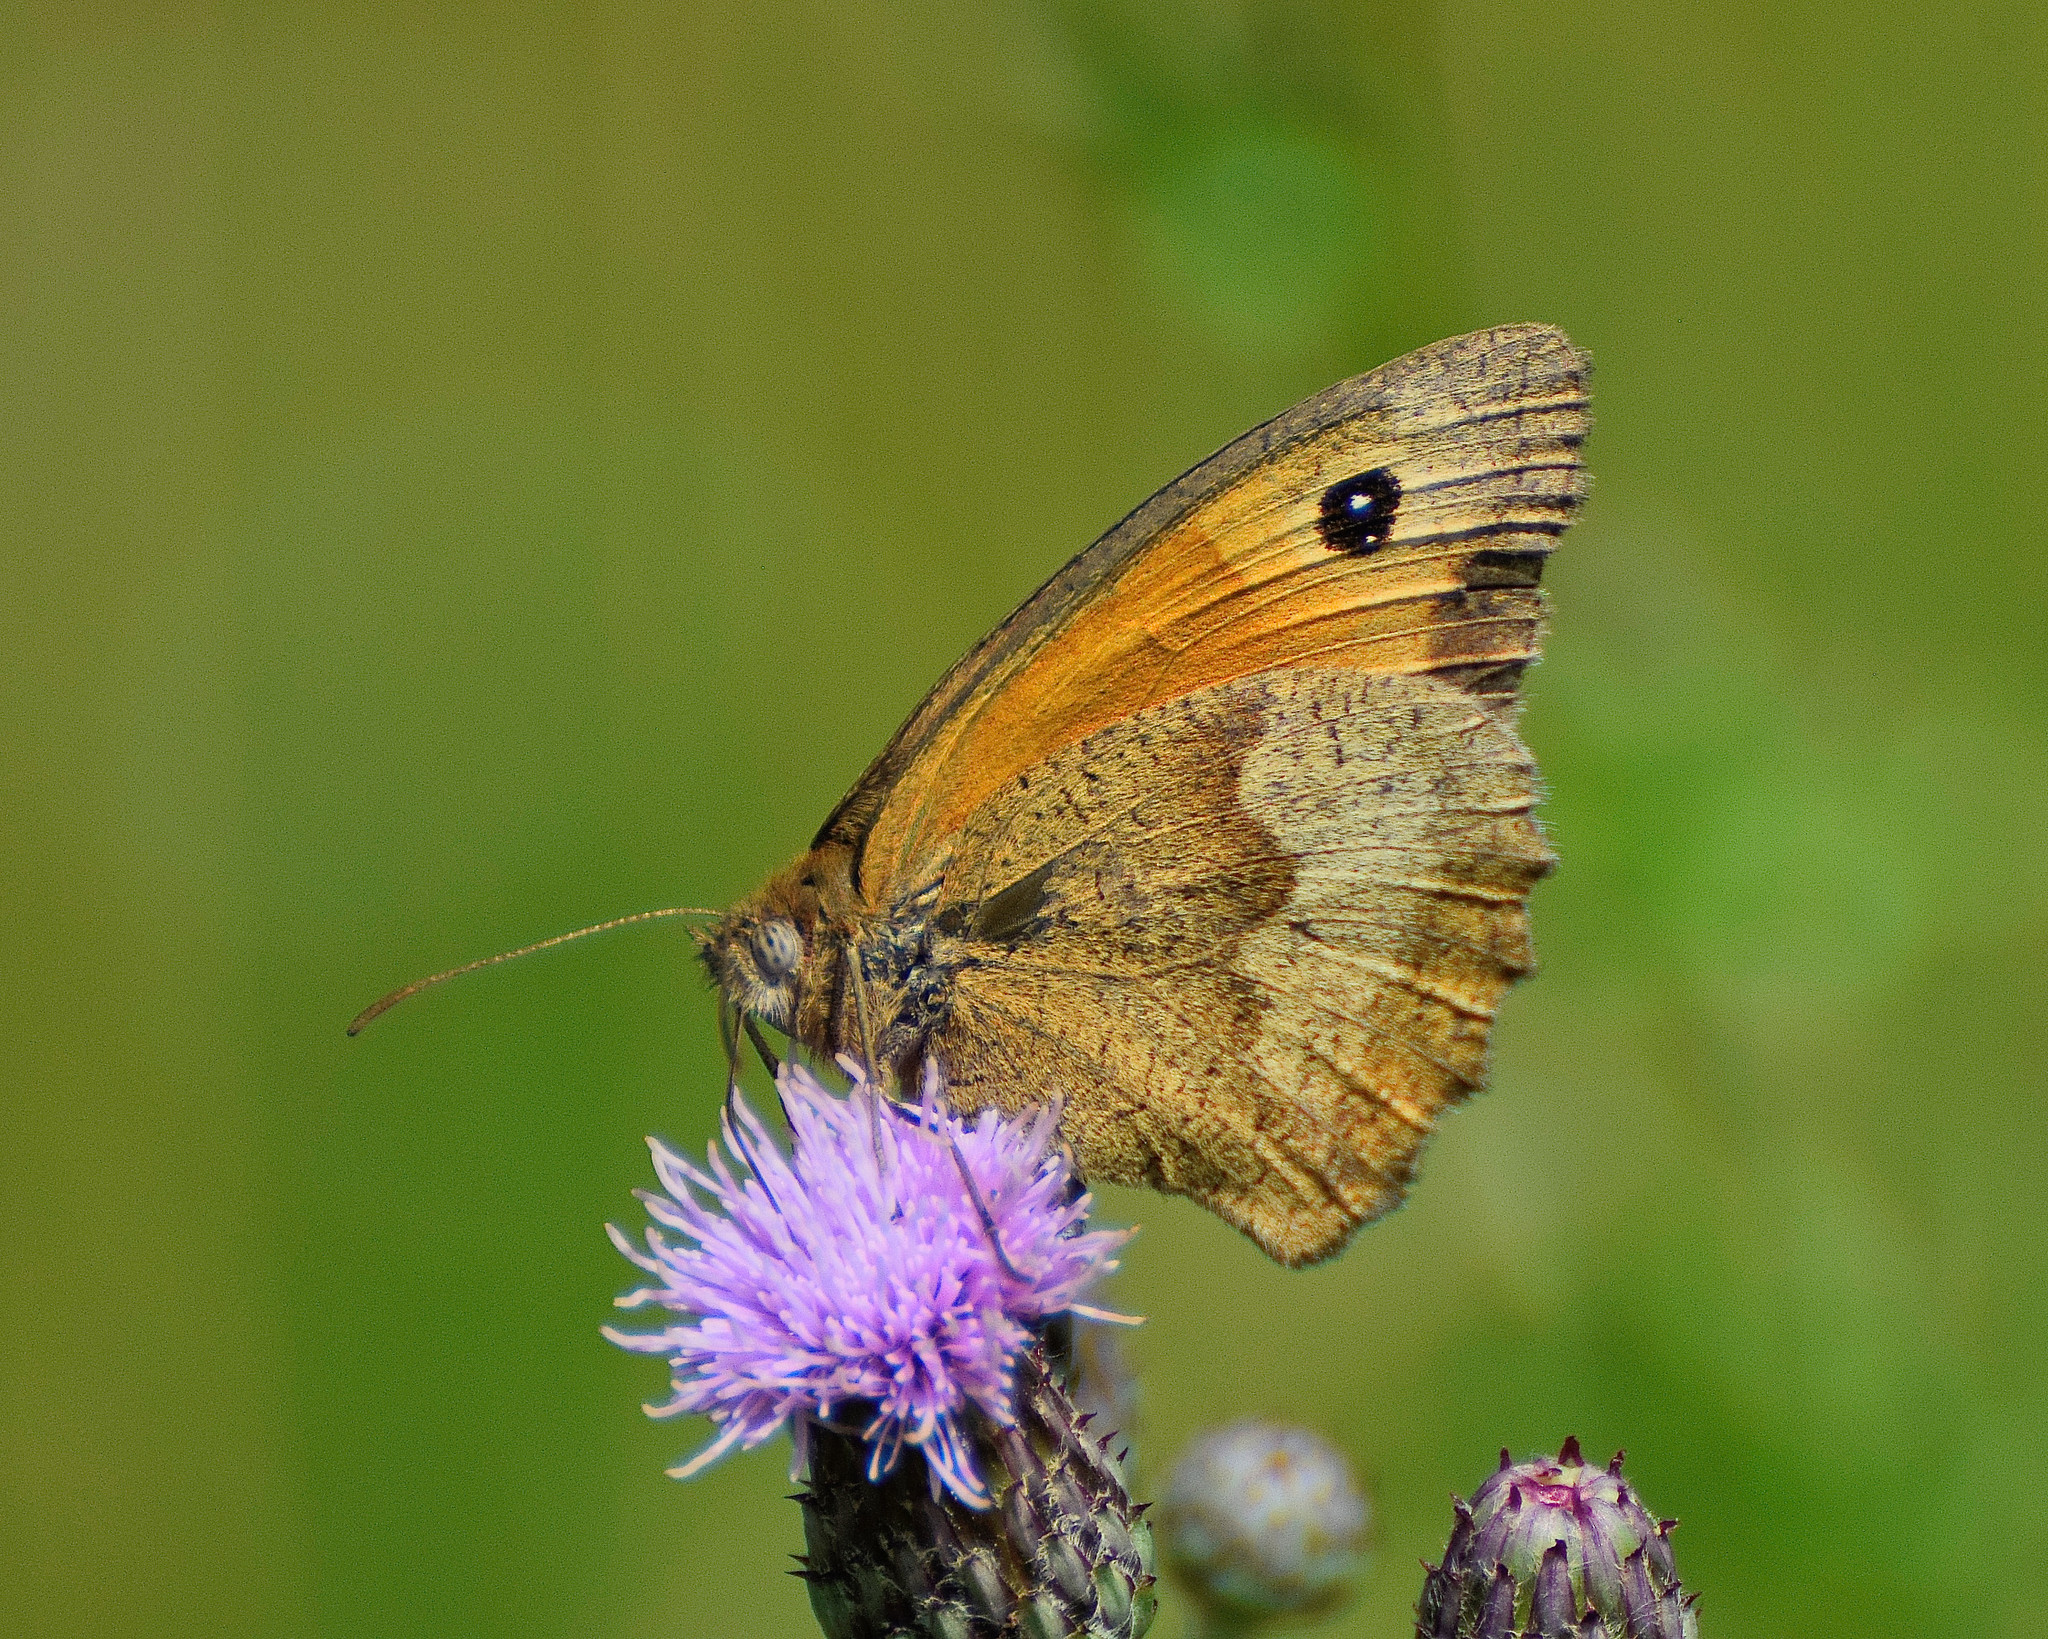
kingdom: Animalia
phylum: Arthropoda
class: Insecta
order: Lepidoptera
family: Nymphalidae
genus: Maniola
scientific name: Maniola jurtina
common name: Meadow brown
